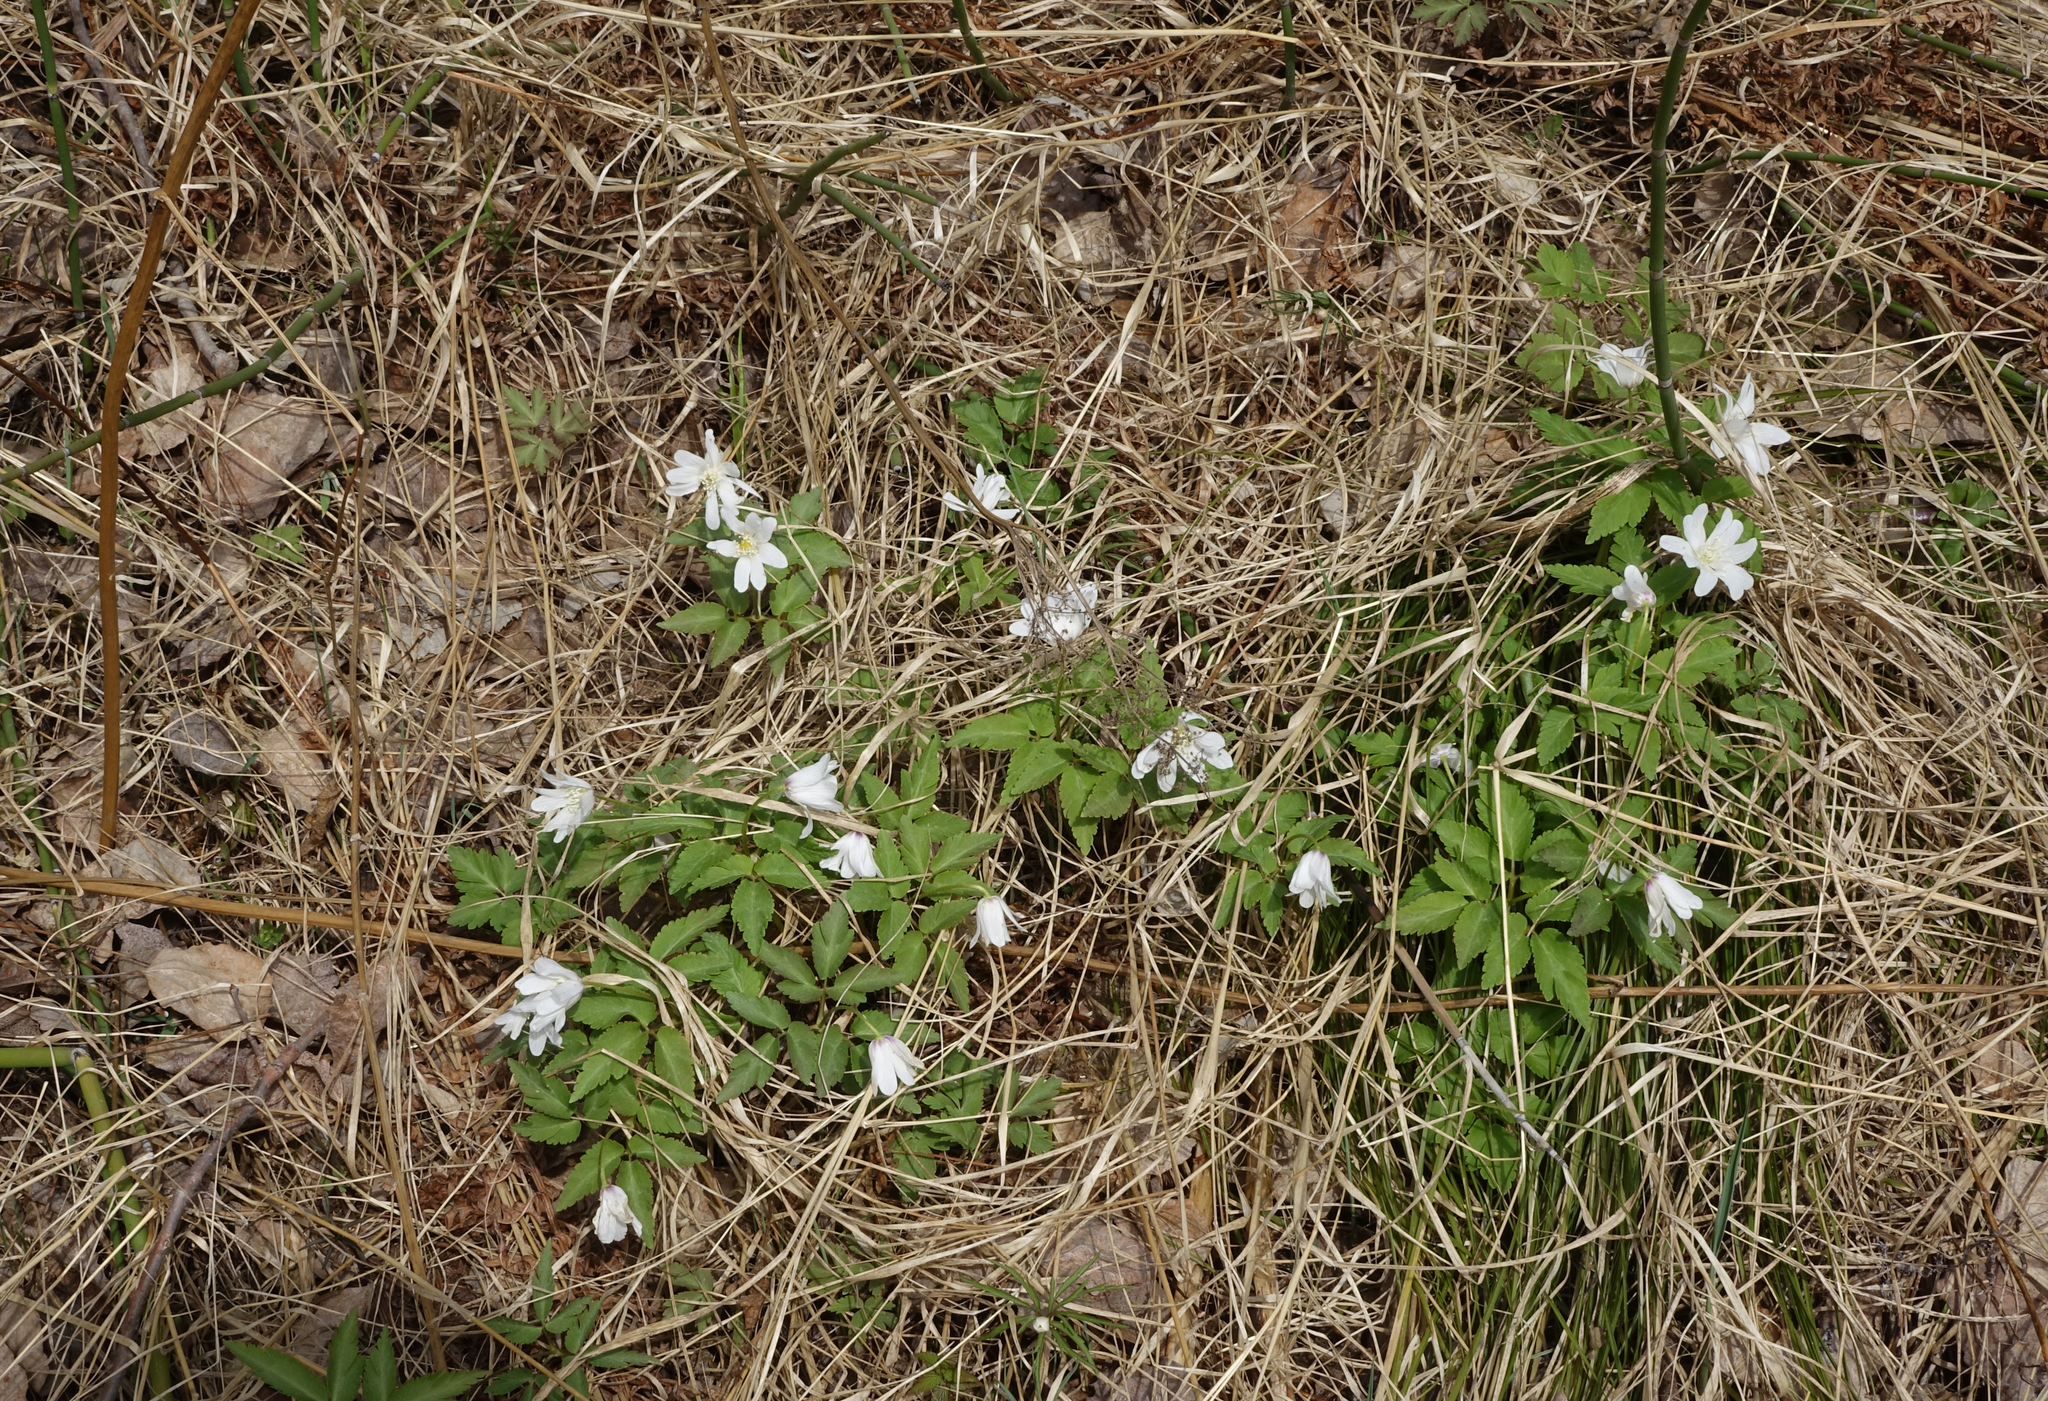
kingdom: Plantae
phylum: Tracheophyta
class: Magnoliopsida
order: Ranunculales
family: Ranunculaceae
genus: Anemone
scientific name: Anemone altaica
